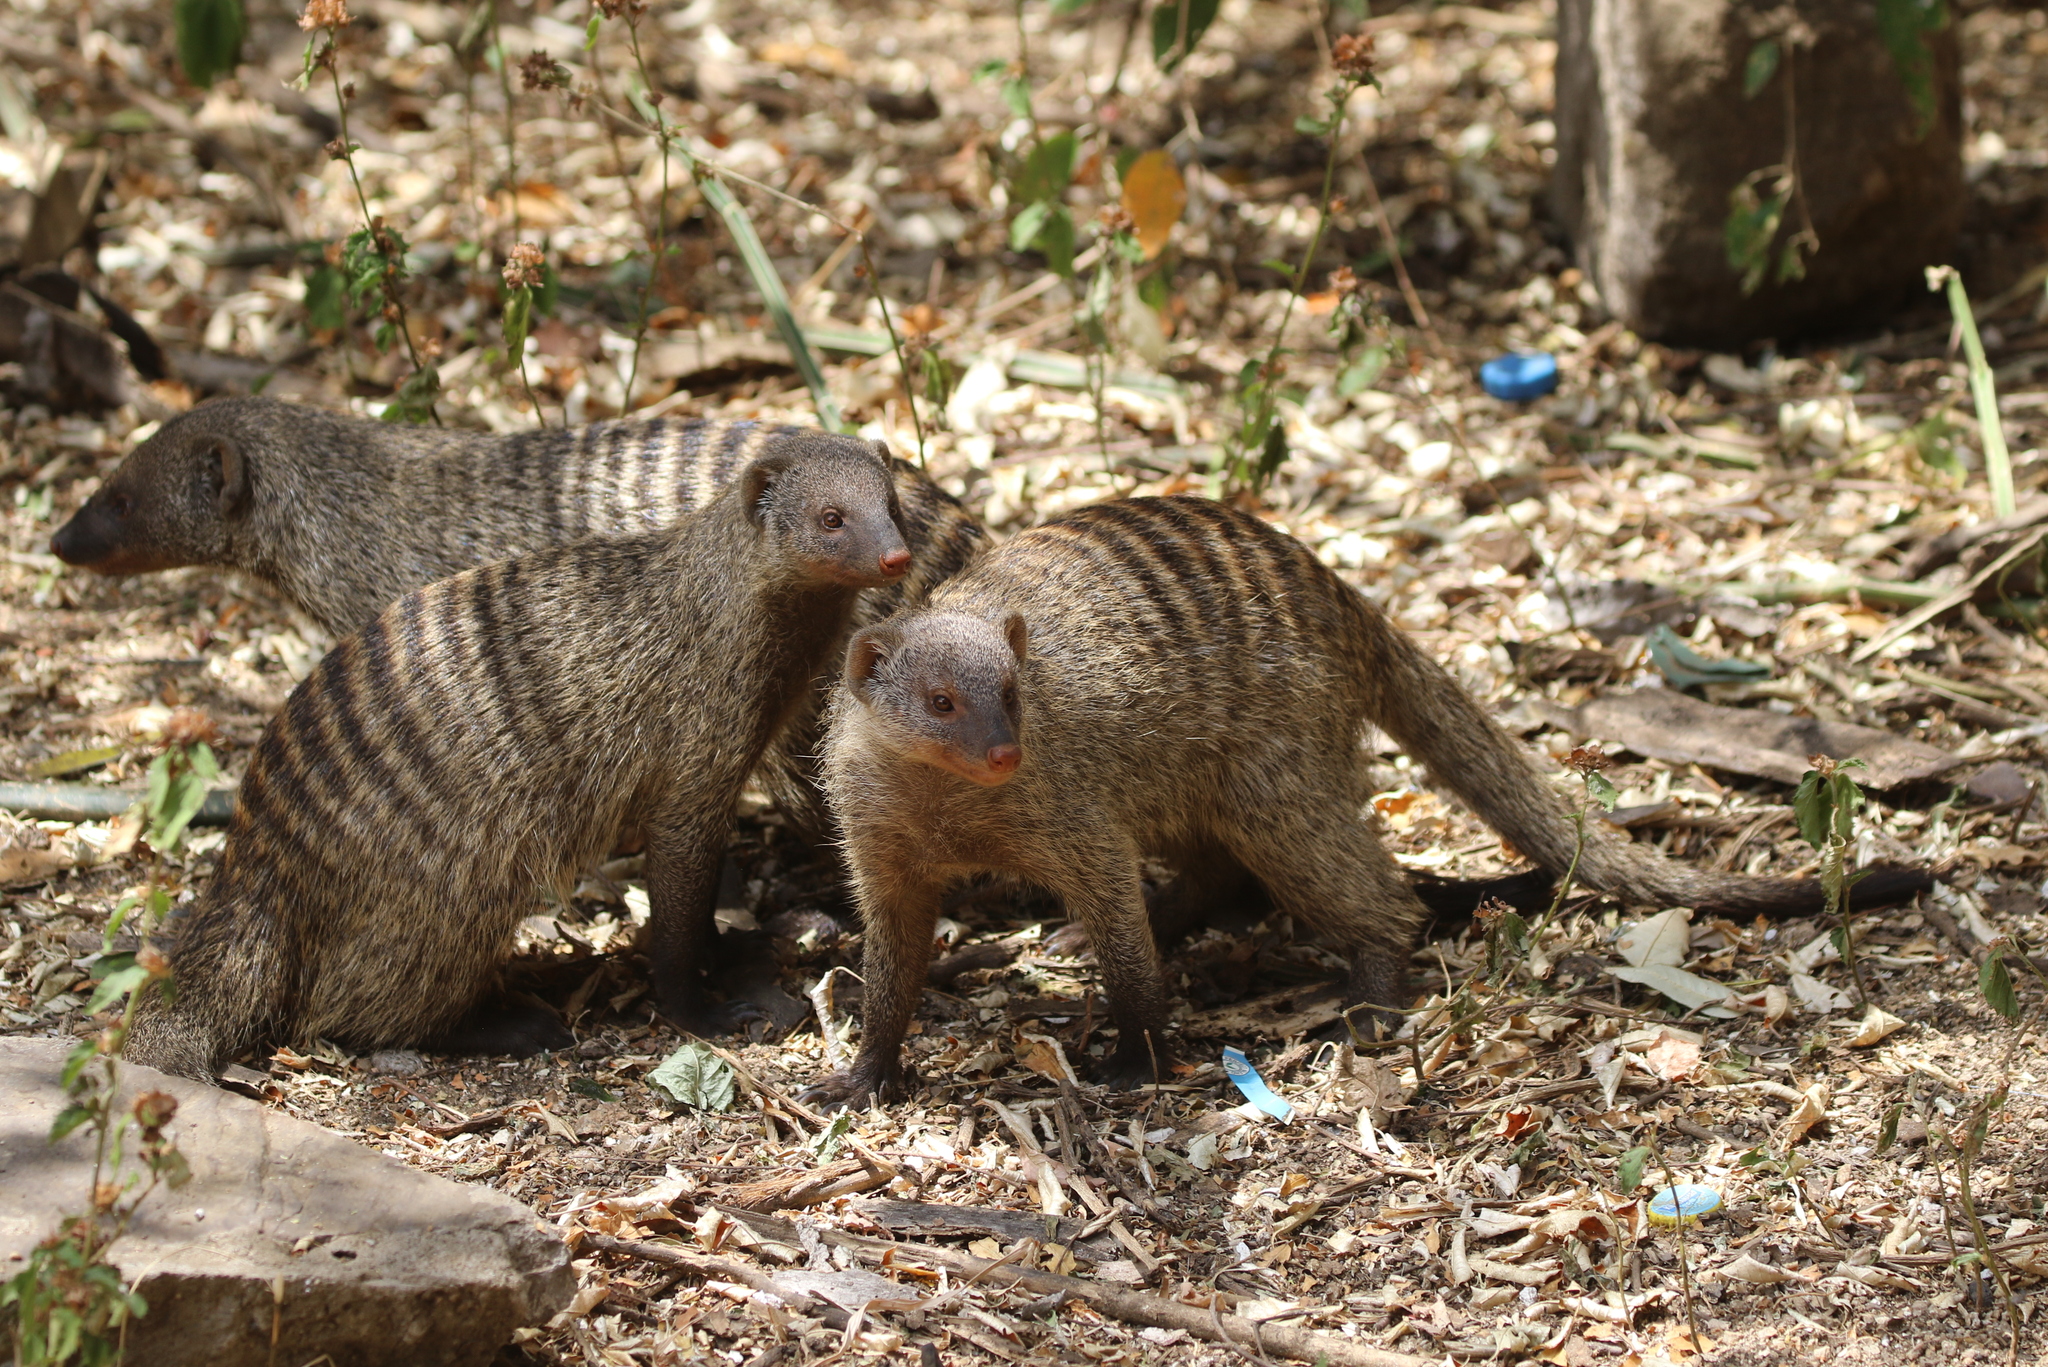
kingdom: Animalia
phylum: Chordata
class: Mammalia
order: Carnivora
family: Herpestidae
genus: Mungos
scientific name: Mungos mungo
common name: Banded mongoose
